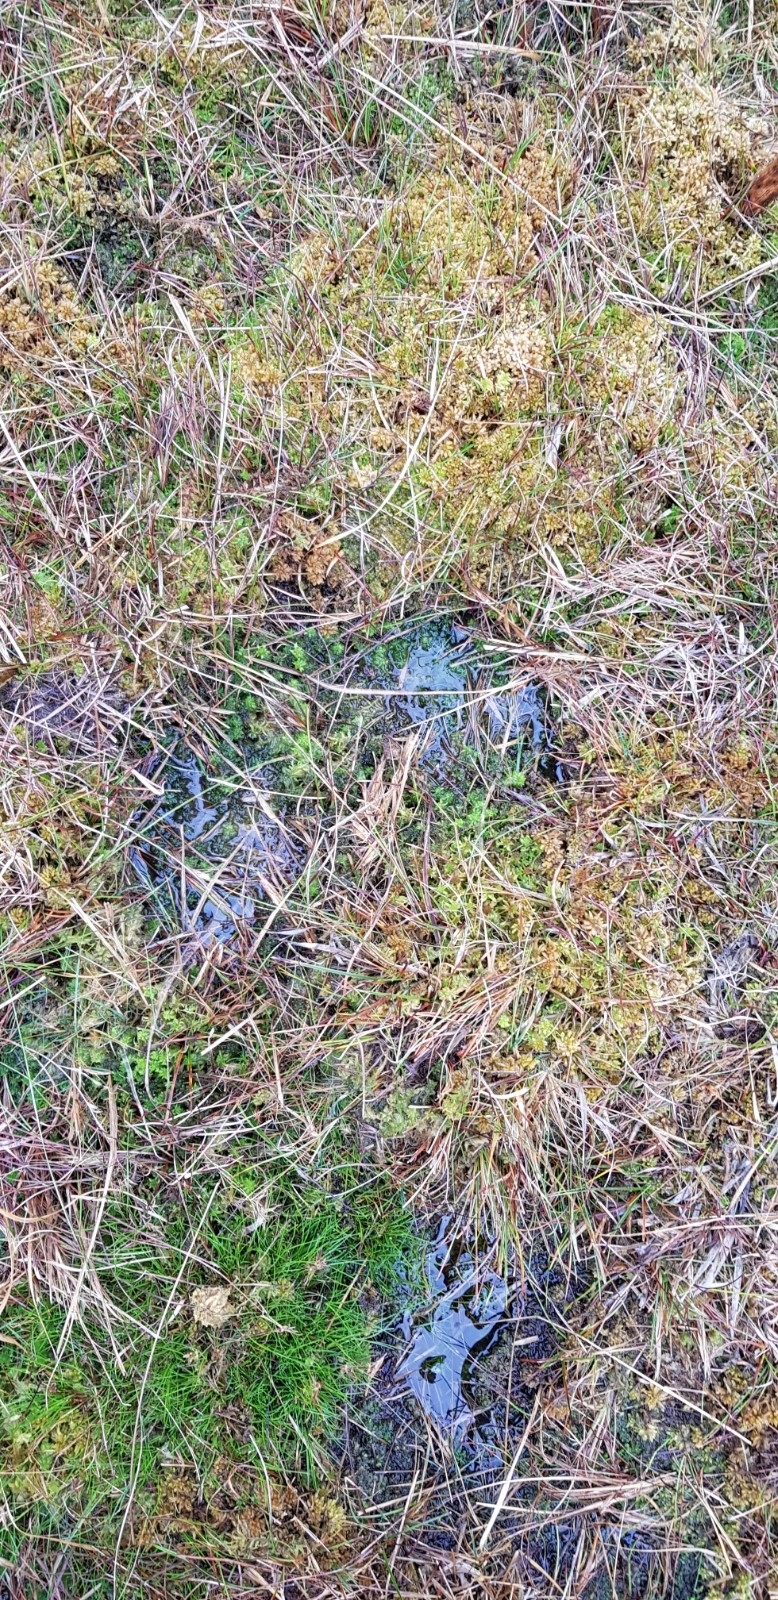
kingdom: Plantae
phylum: Bryophyta
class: Sphagnopsida
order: Sphagnales
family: Sphagnaceae
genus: Sphagnum
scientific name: Sphagnum papillosum
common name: Papillose peat moss
